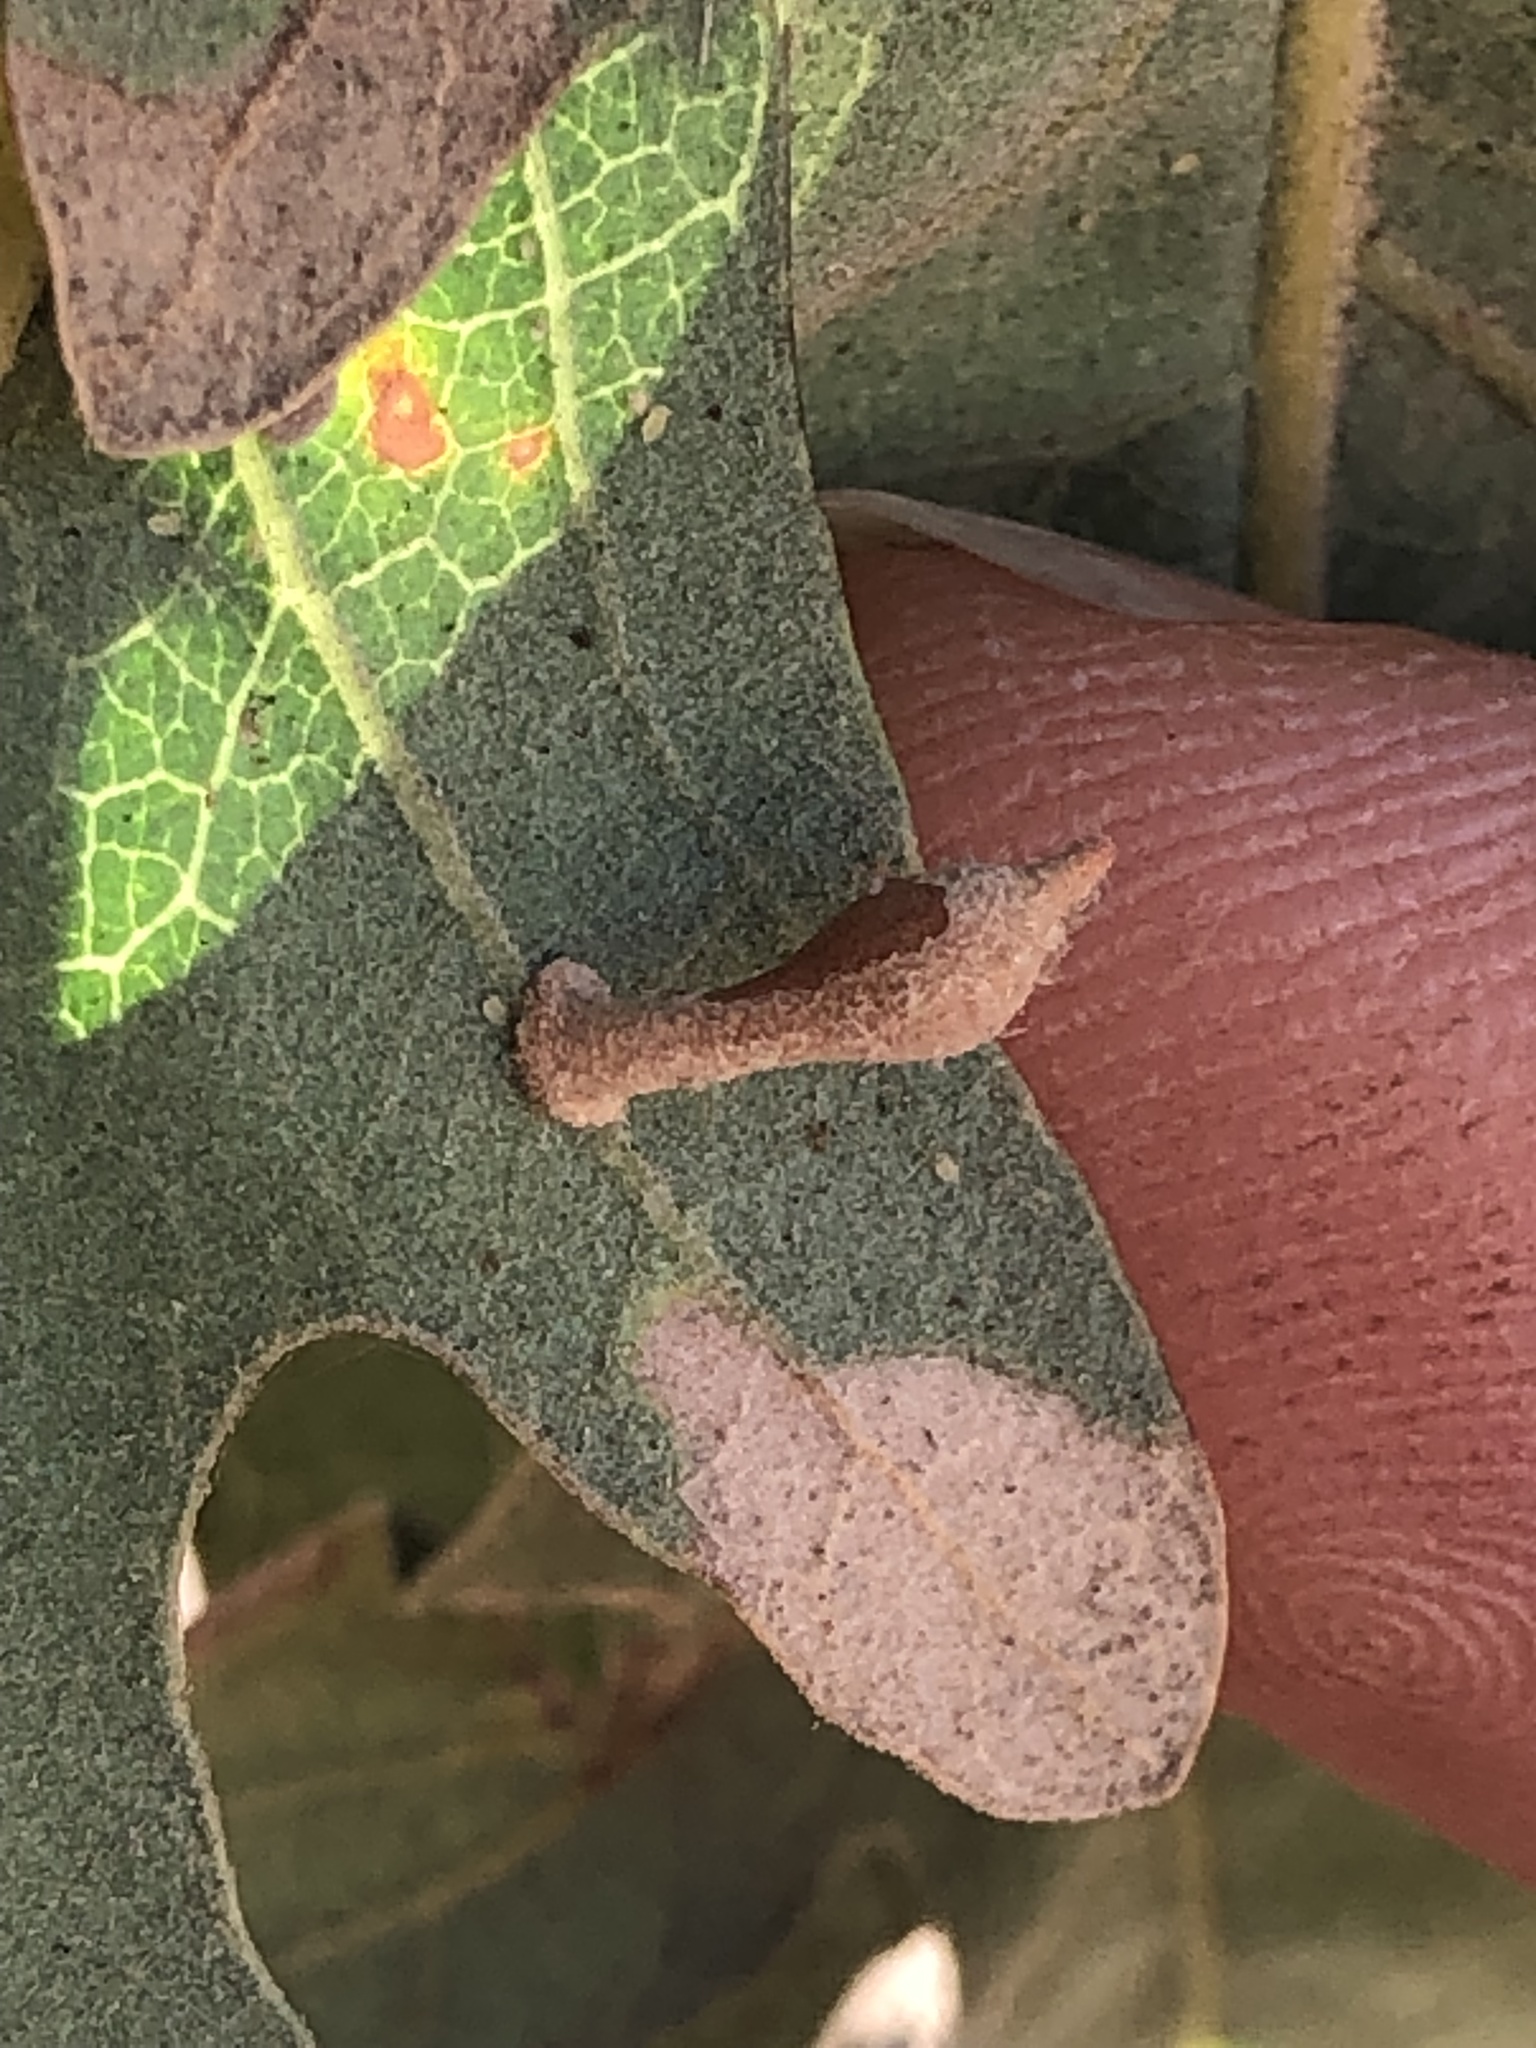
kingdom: Animalia
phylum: Arthropoda
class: Insecta
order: Hymenoptera
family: Cynipidae
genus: Atrusca
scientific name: Atrusca
